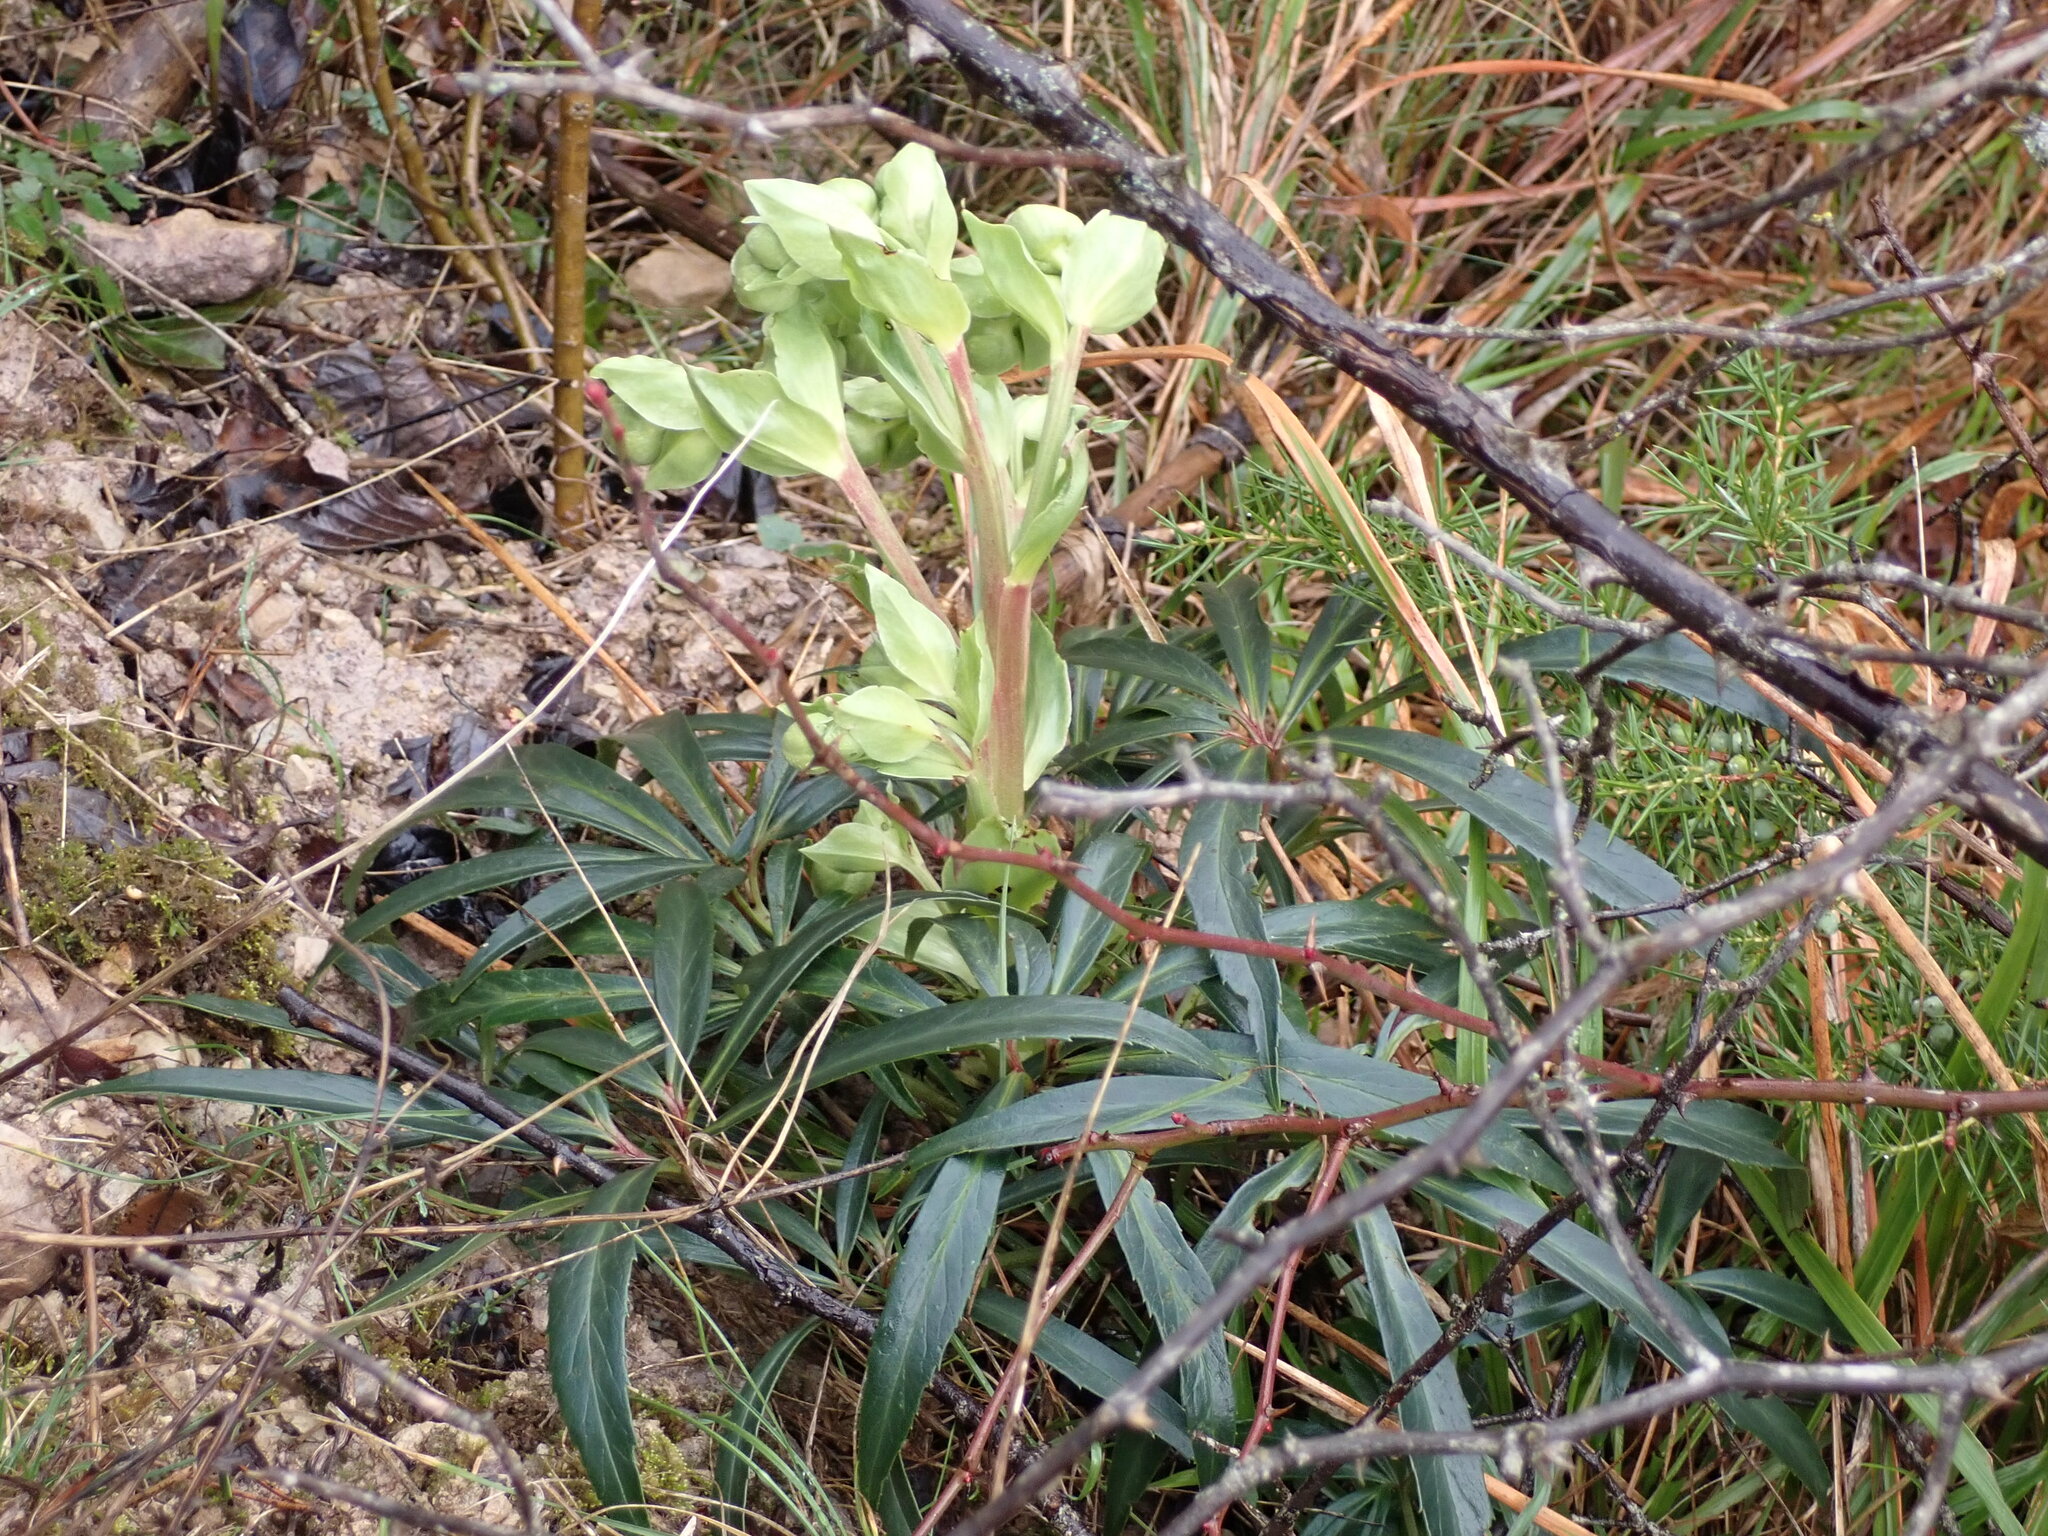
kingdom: Plantae
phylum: Tracheophyta
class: Magnoliopsida
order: Ranunculales
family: Ranunculaceae
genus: Helleborus
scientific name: Helleborus foetidus
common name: Stinking hellebore
